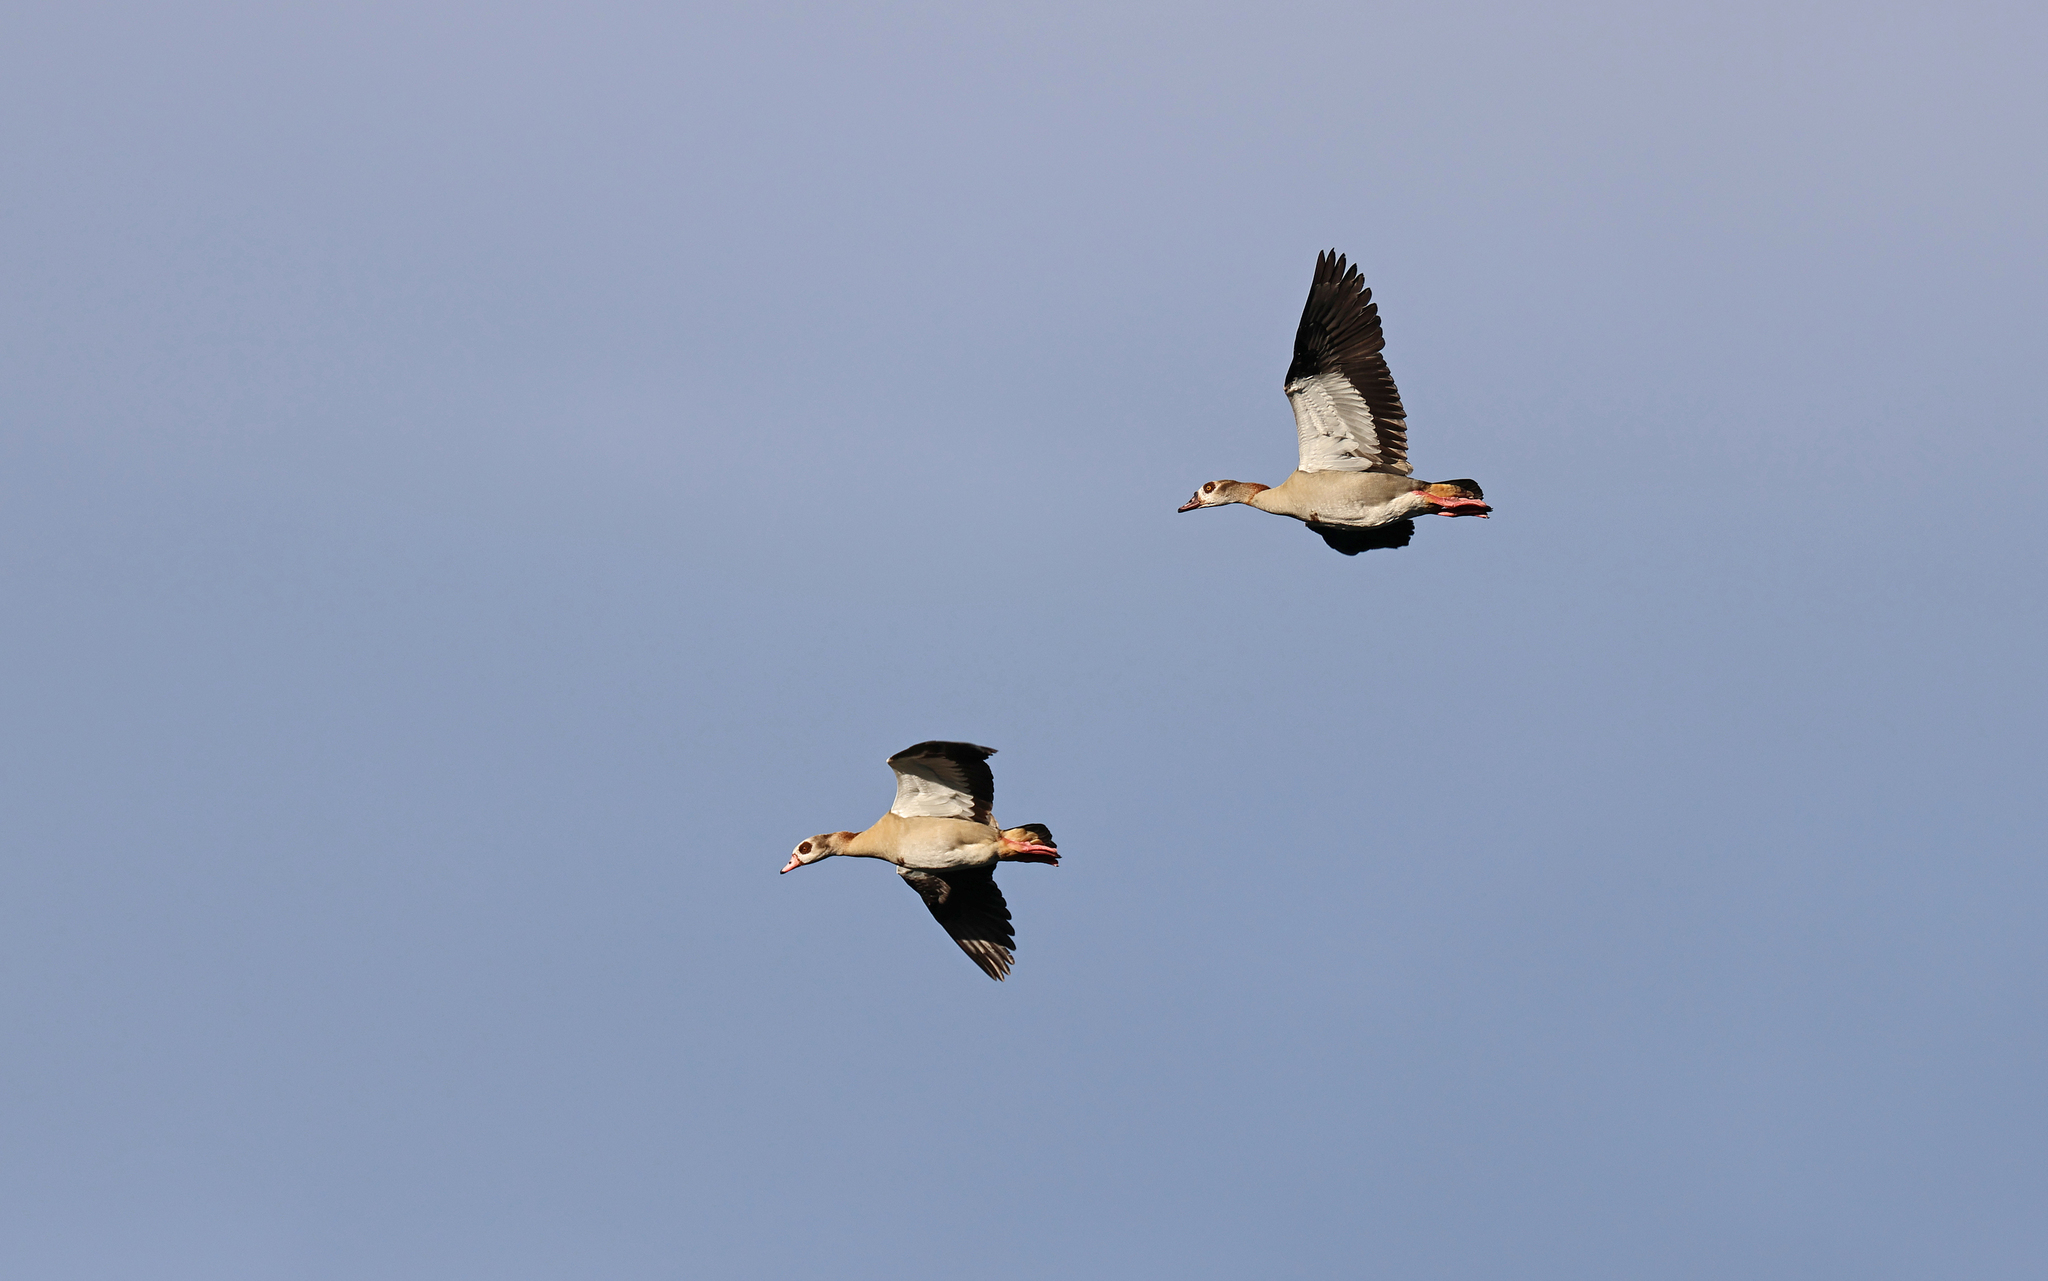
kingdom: Animalia
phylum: Chordata
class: Aves
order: Anseriformes
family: Anatidae
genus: Alopochen
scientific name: Alopochen aegyptiaca
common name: Egyptian goose
